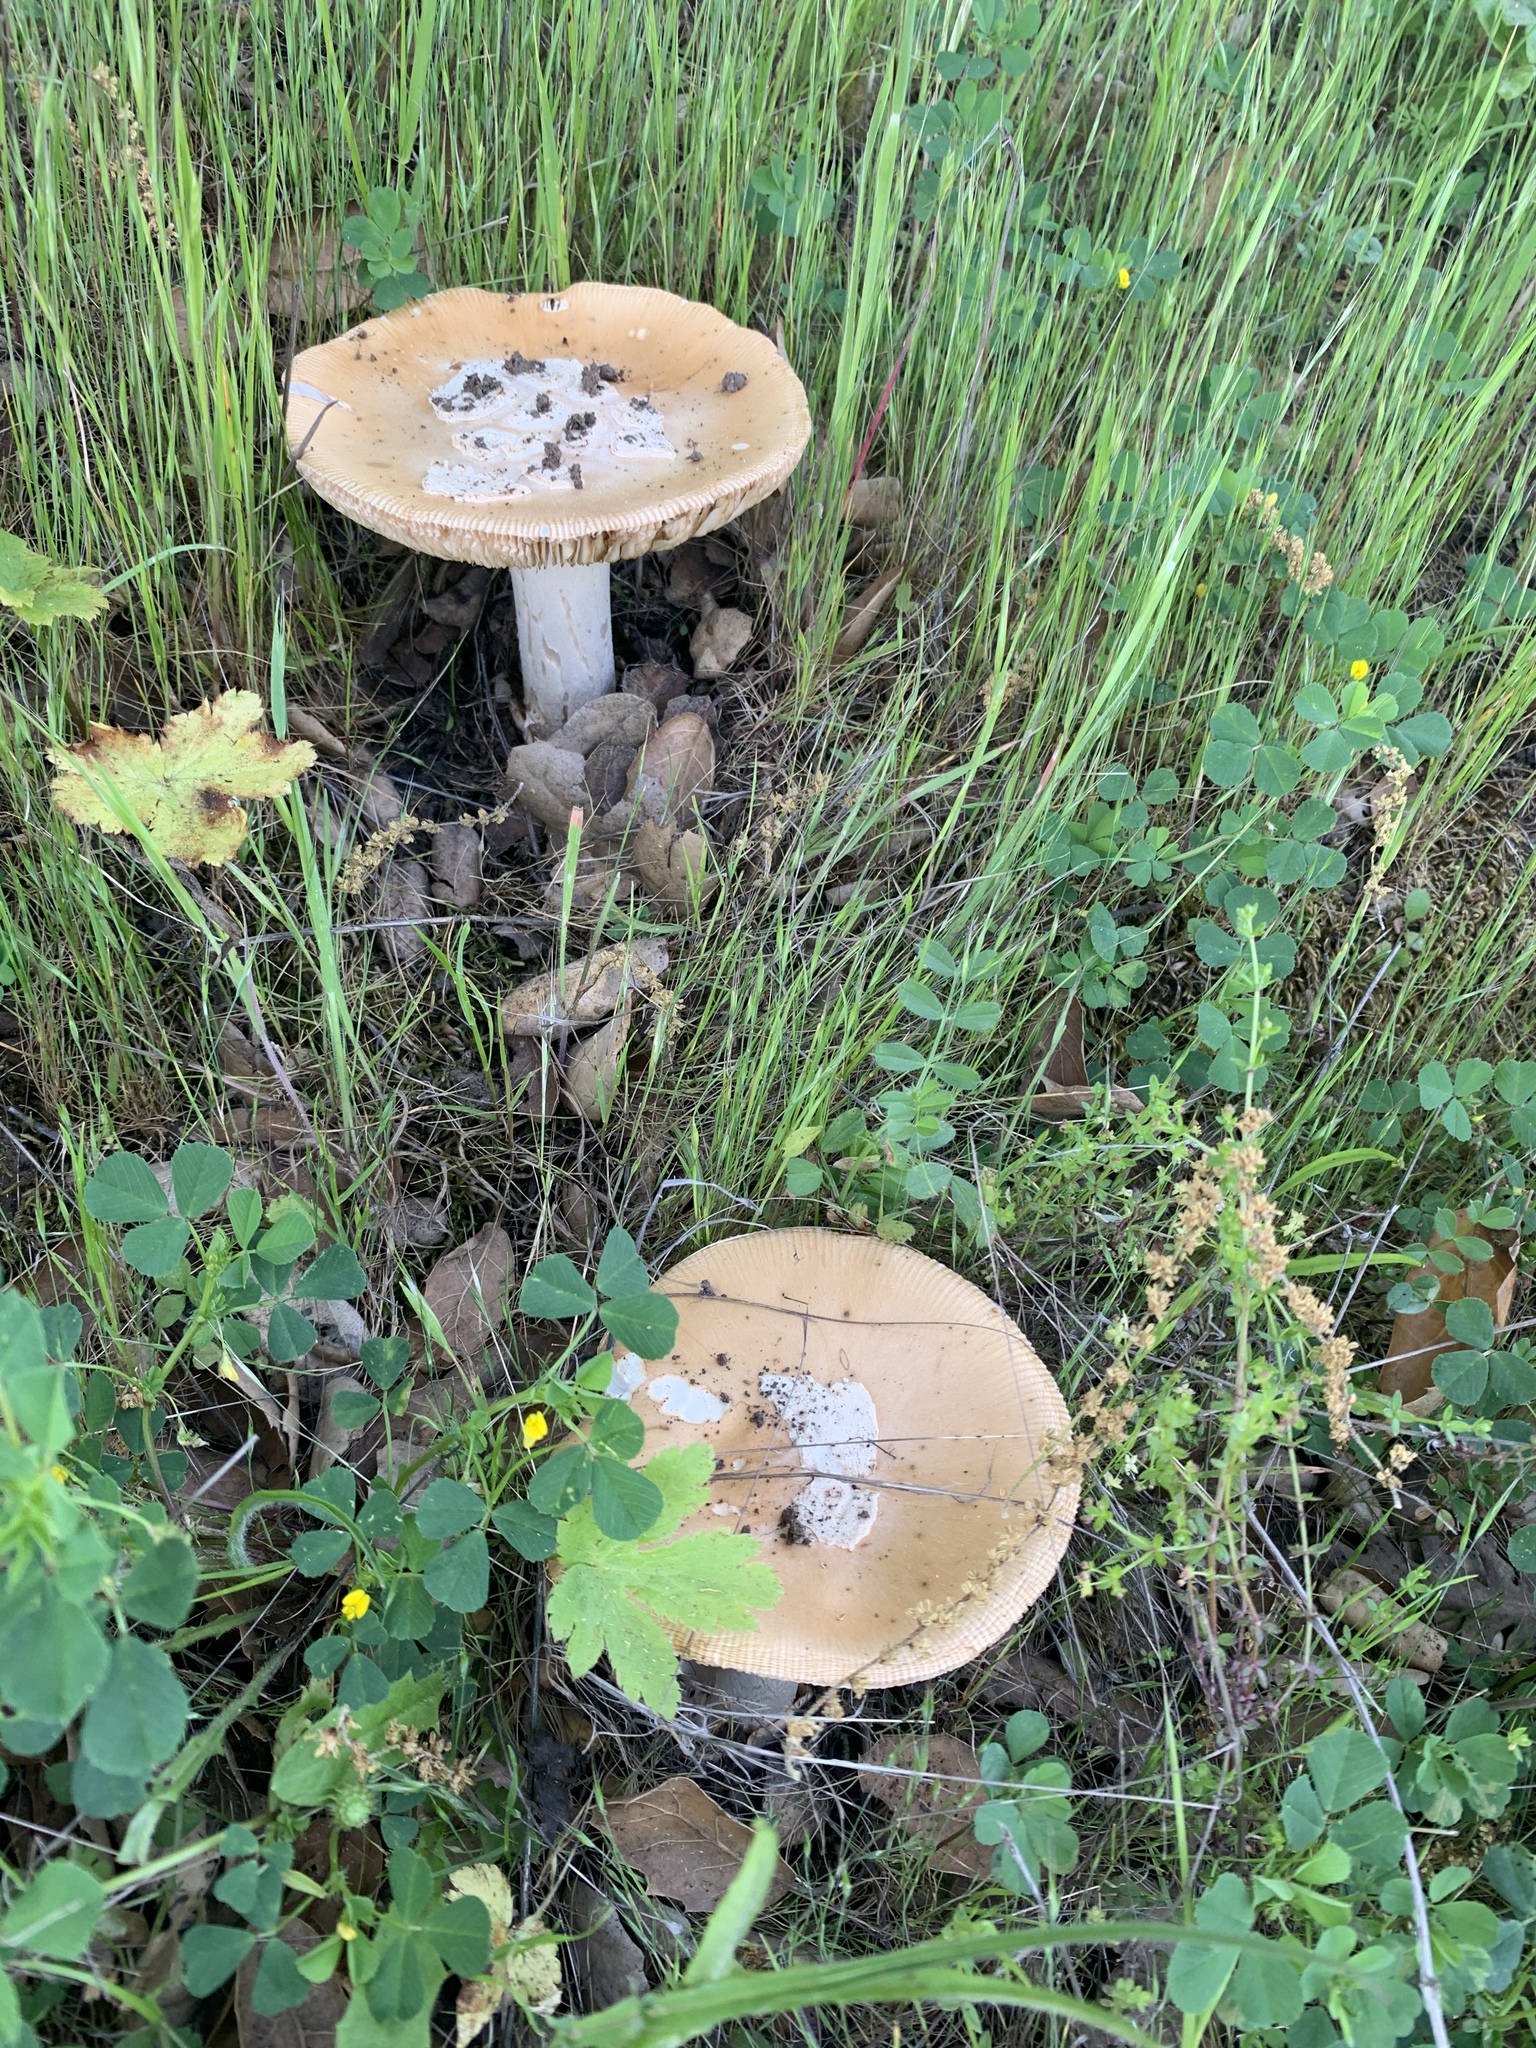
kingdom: Fungi
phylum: Basidiomycota
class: Agaricomycetes
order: Agaricales
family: Amanitaceae
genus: Amanita
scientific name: Amanita velosa
